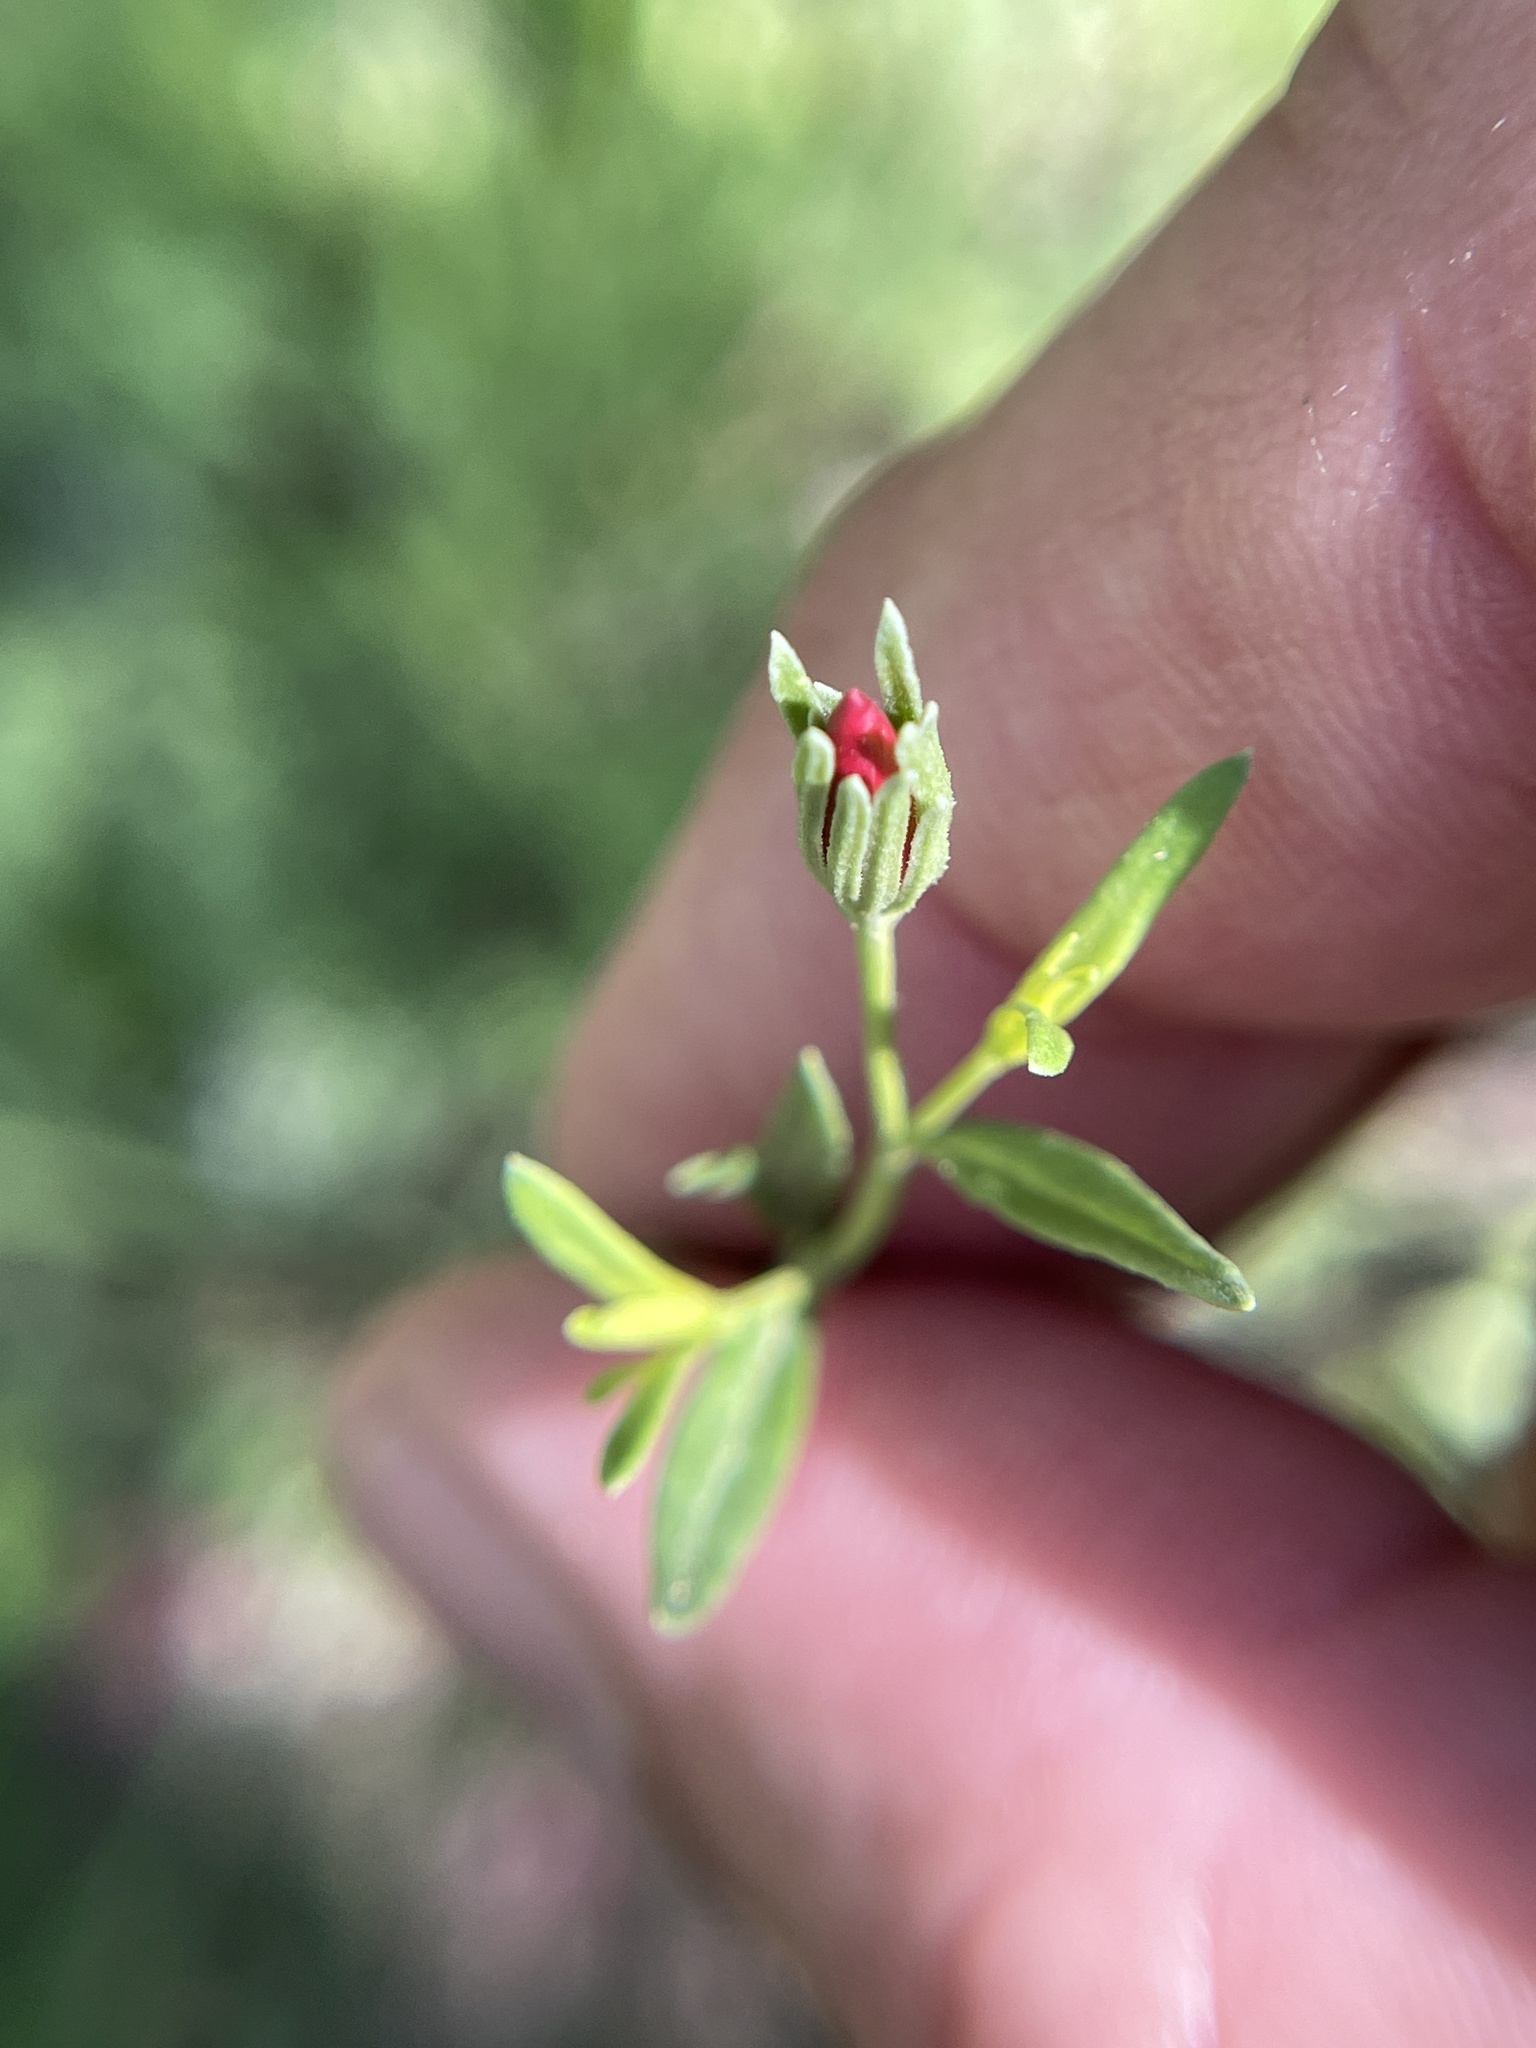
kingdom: Plantae
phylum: Tracheophyta
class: Magnoliopsida
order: Lamiales
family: Oleaceae
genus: Menodora
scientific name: Menodora heterophylla
